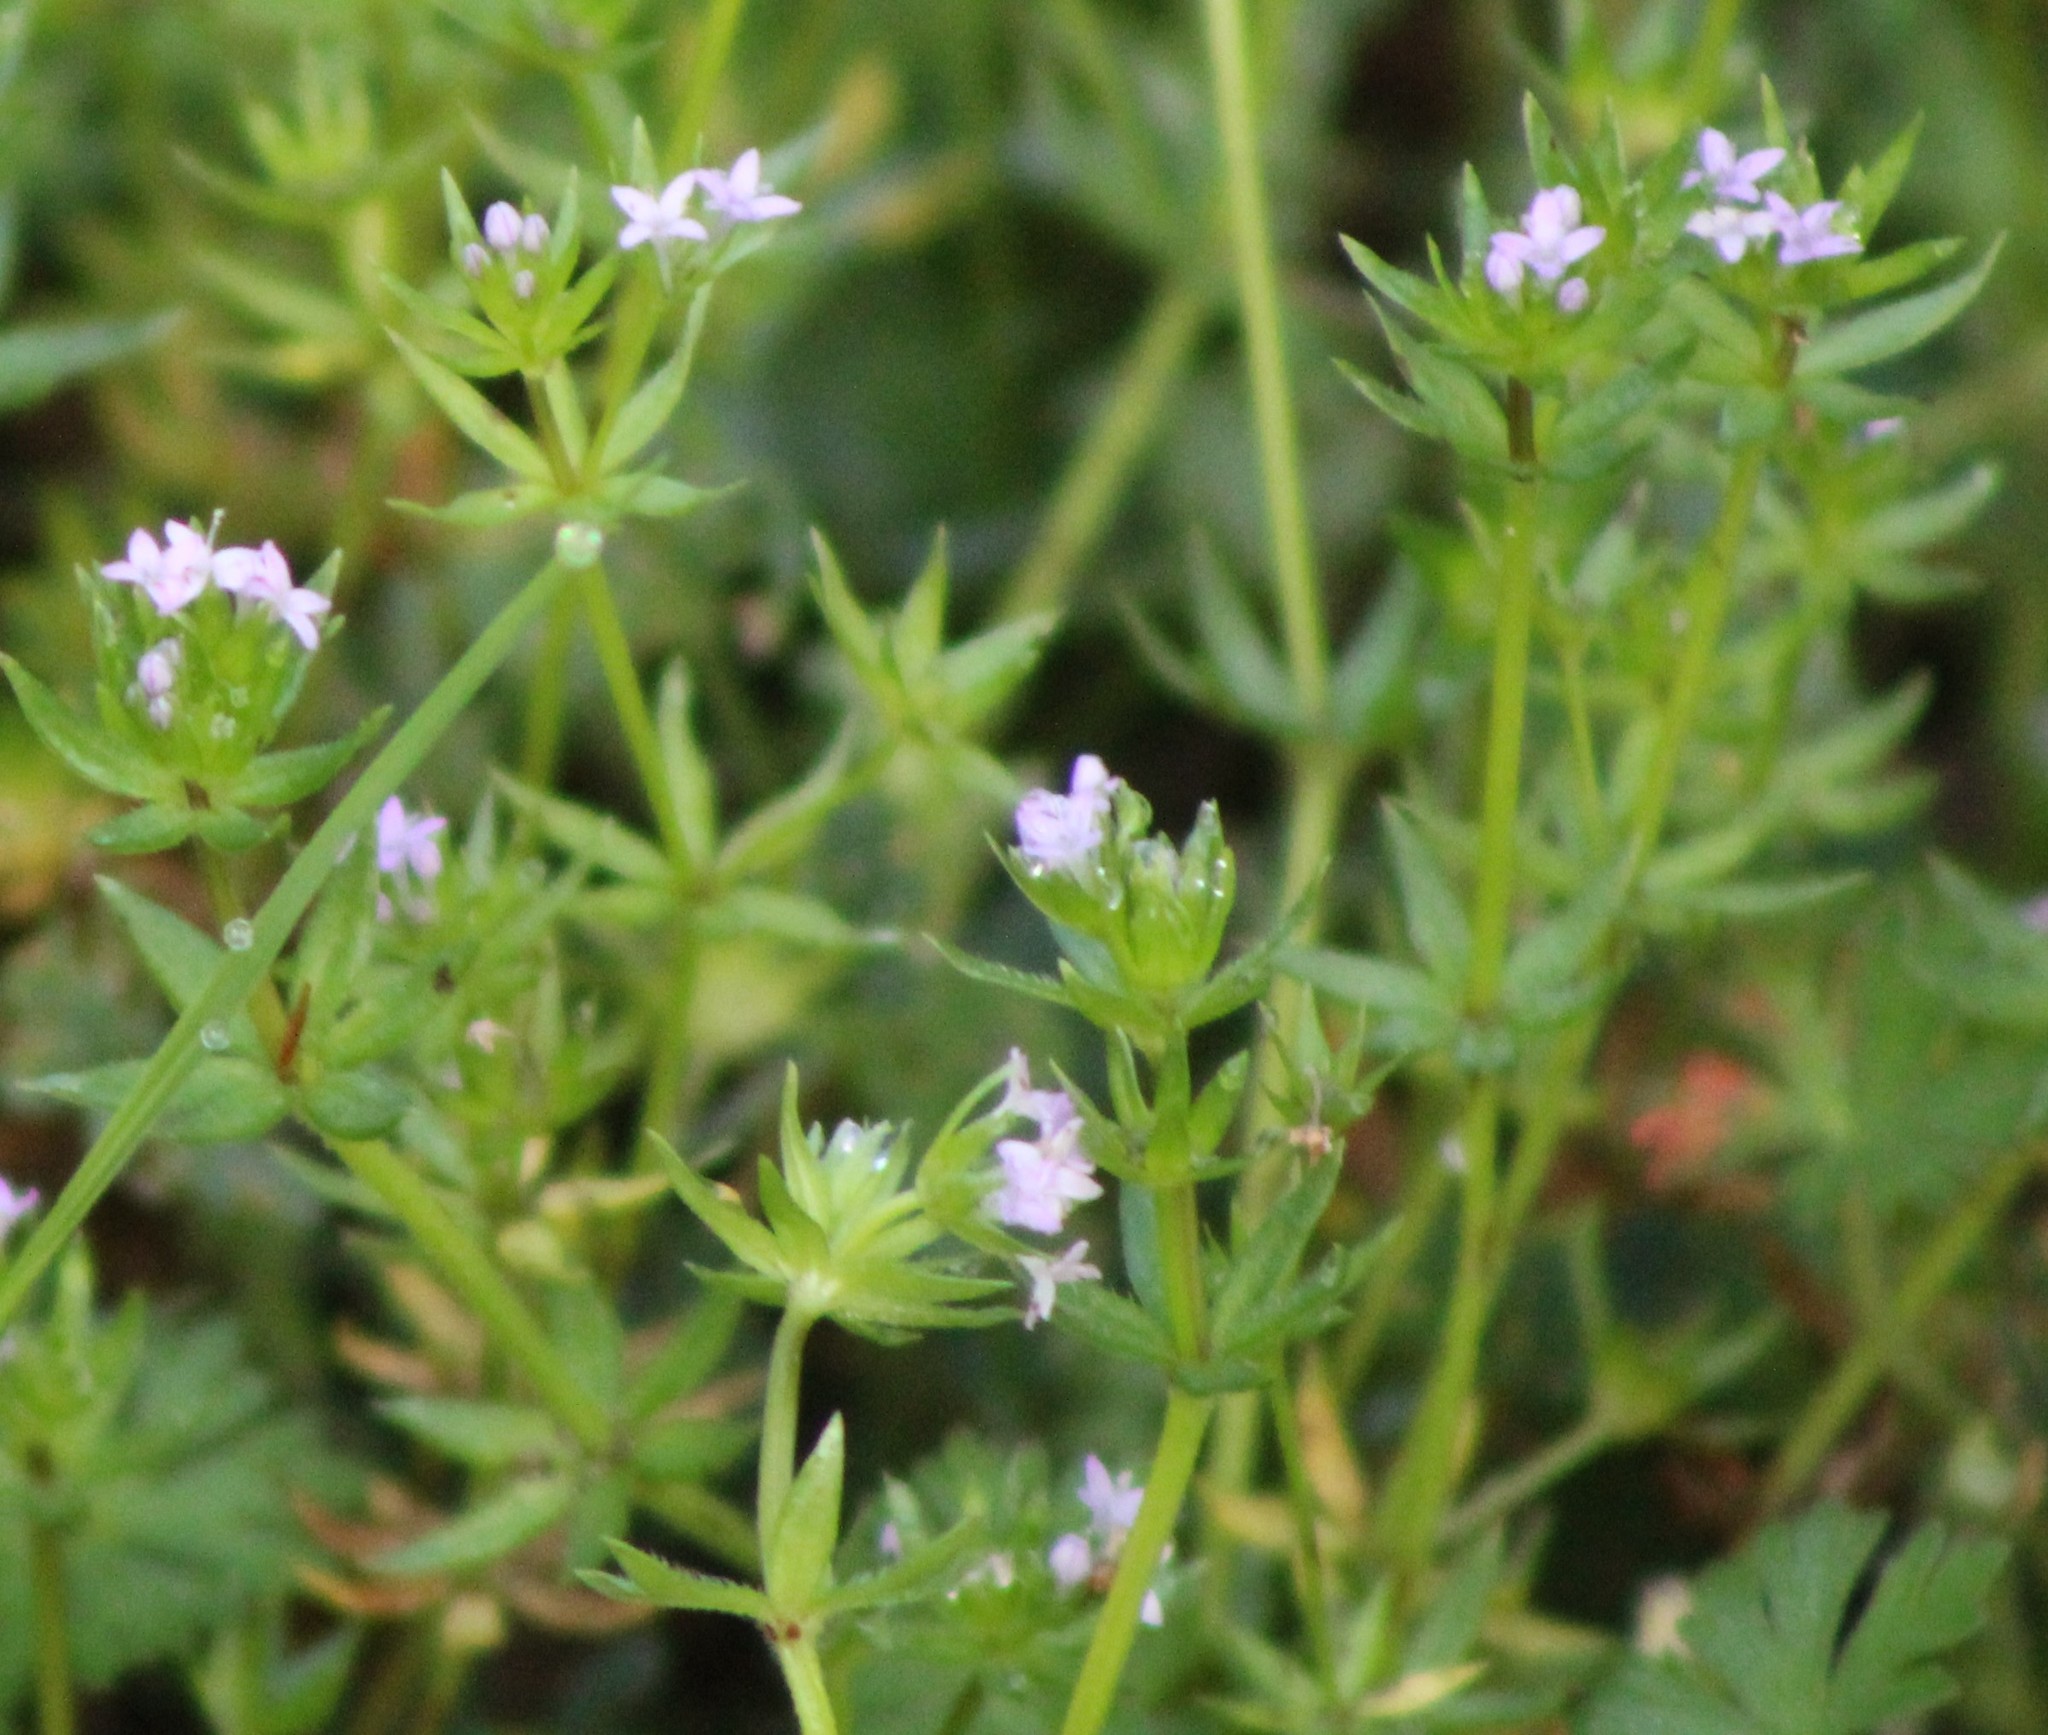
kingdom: Plantae
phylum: Tracheophyta
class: Magnoliopsida
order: Gentianales
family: Rubiaceae
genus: Sherardia
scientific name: Sherardia arvensis
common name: Field madder
